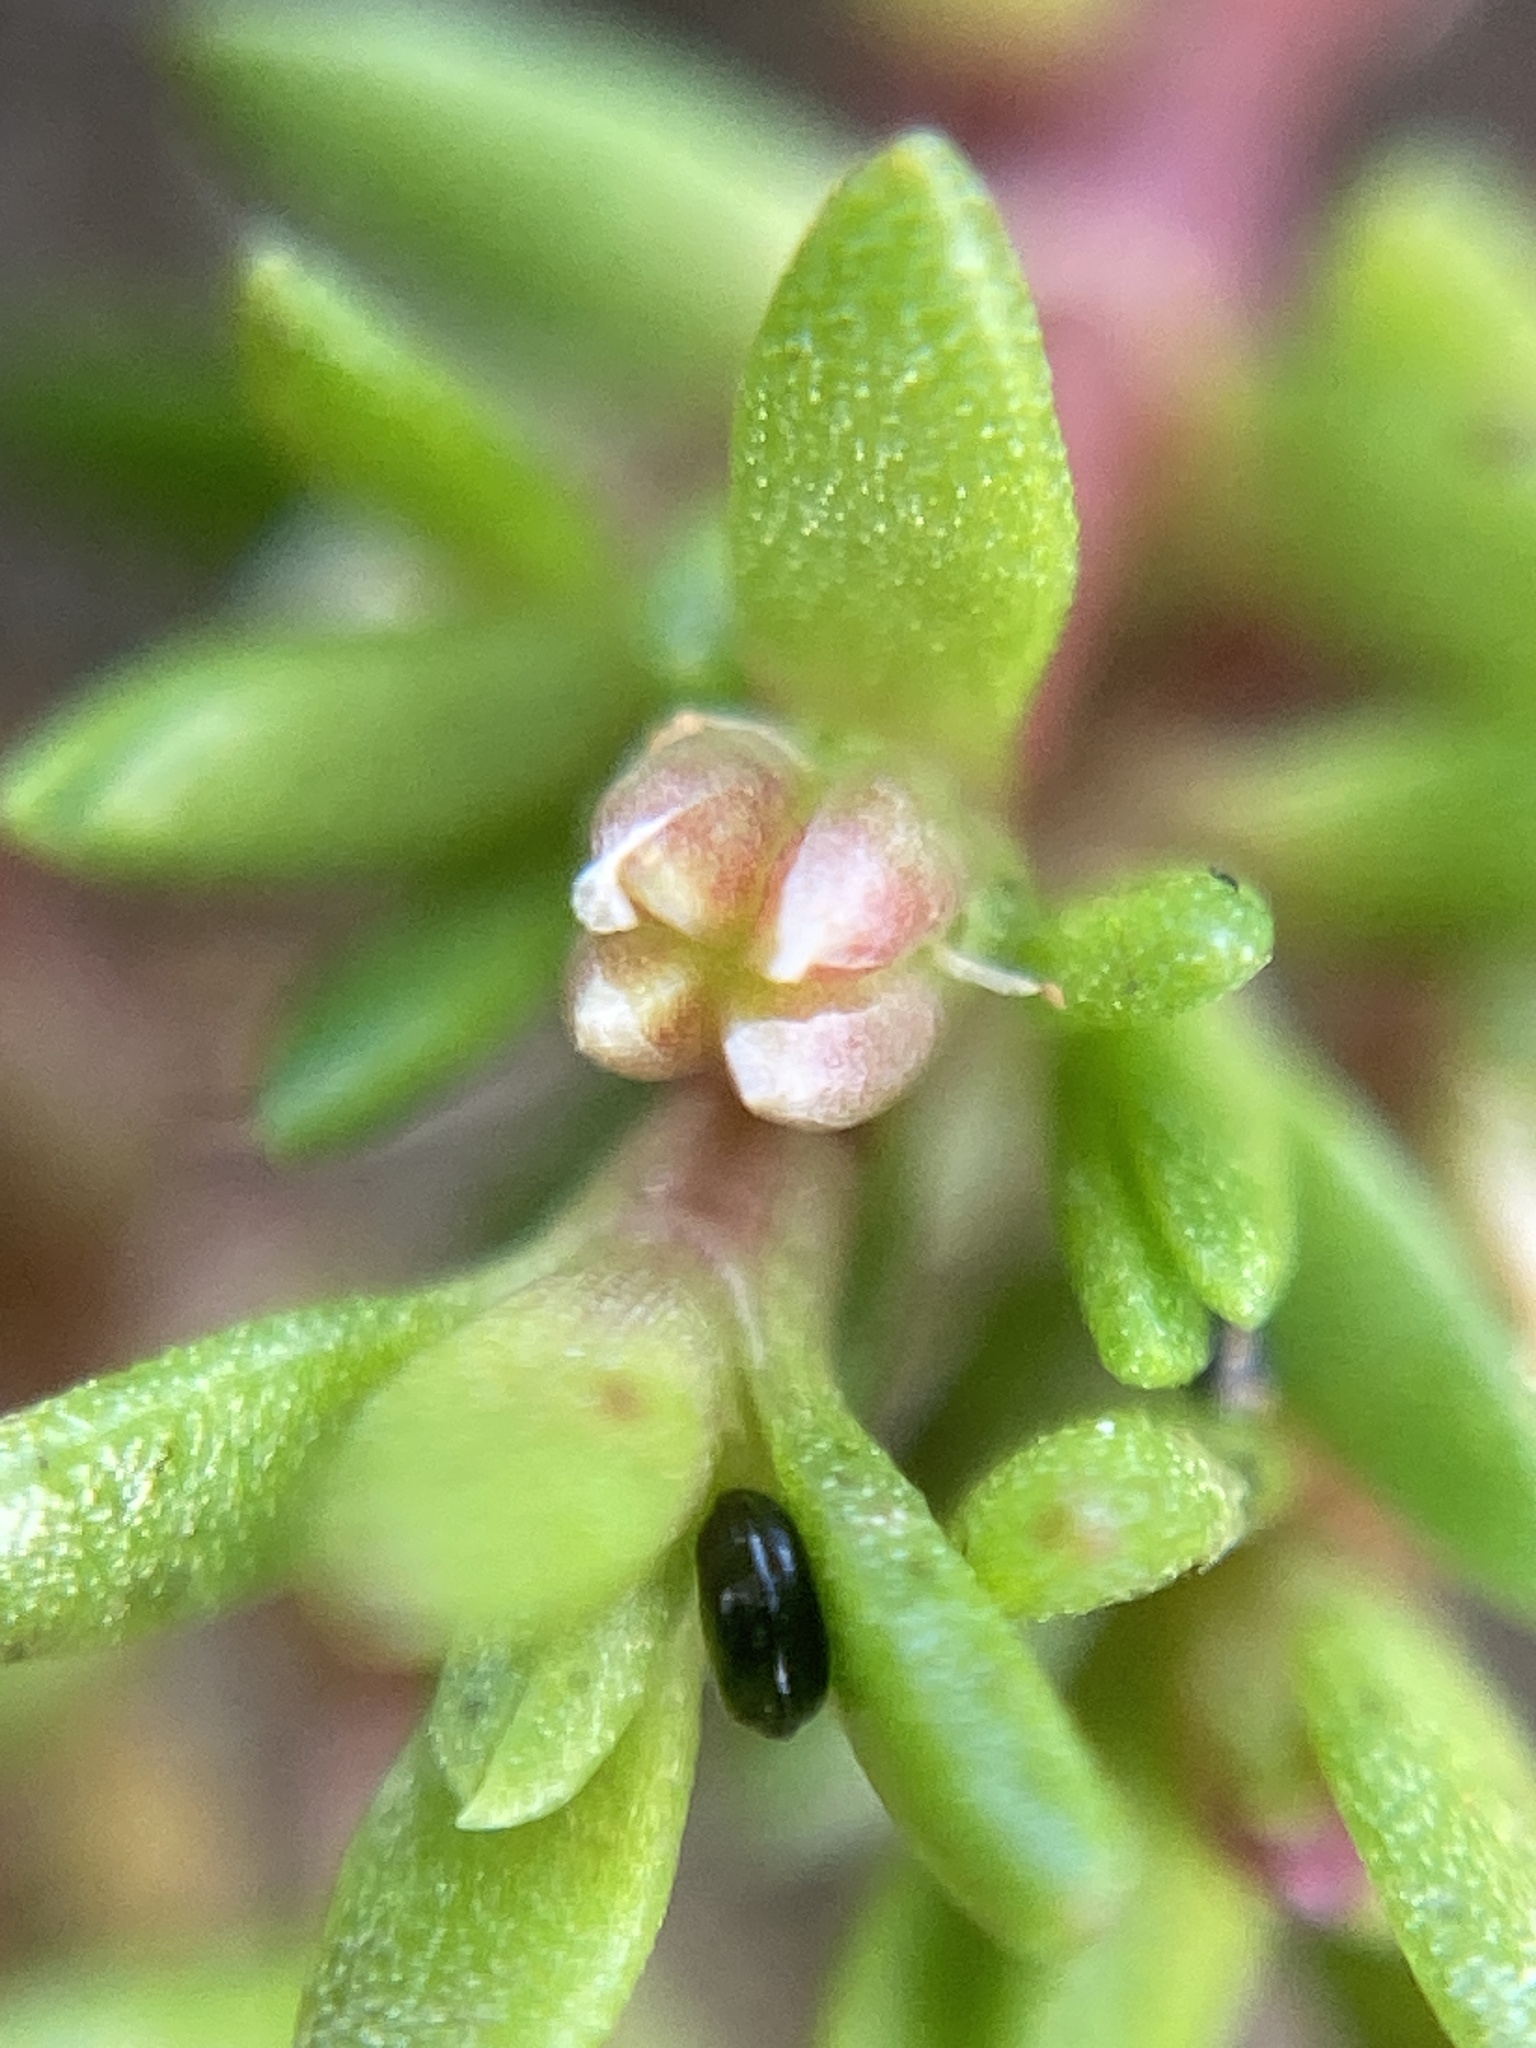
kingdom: Plantae
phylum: Tracheophyta
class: Magnoliopsida
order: Saxifragales
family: Crassulaceae
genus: Crassula
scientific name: Crassula aquatica
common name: Pigmyweed
